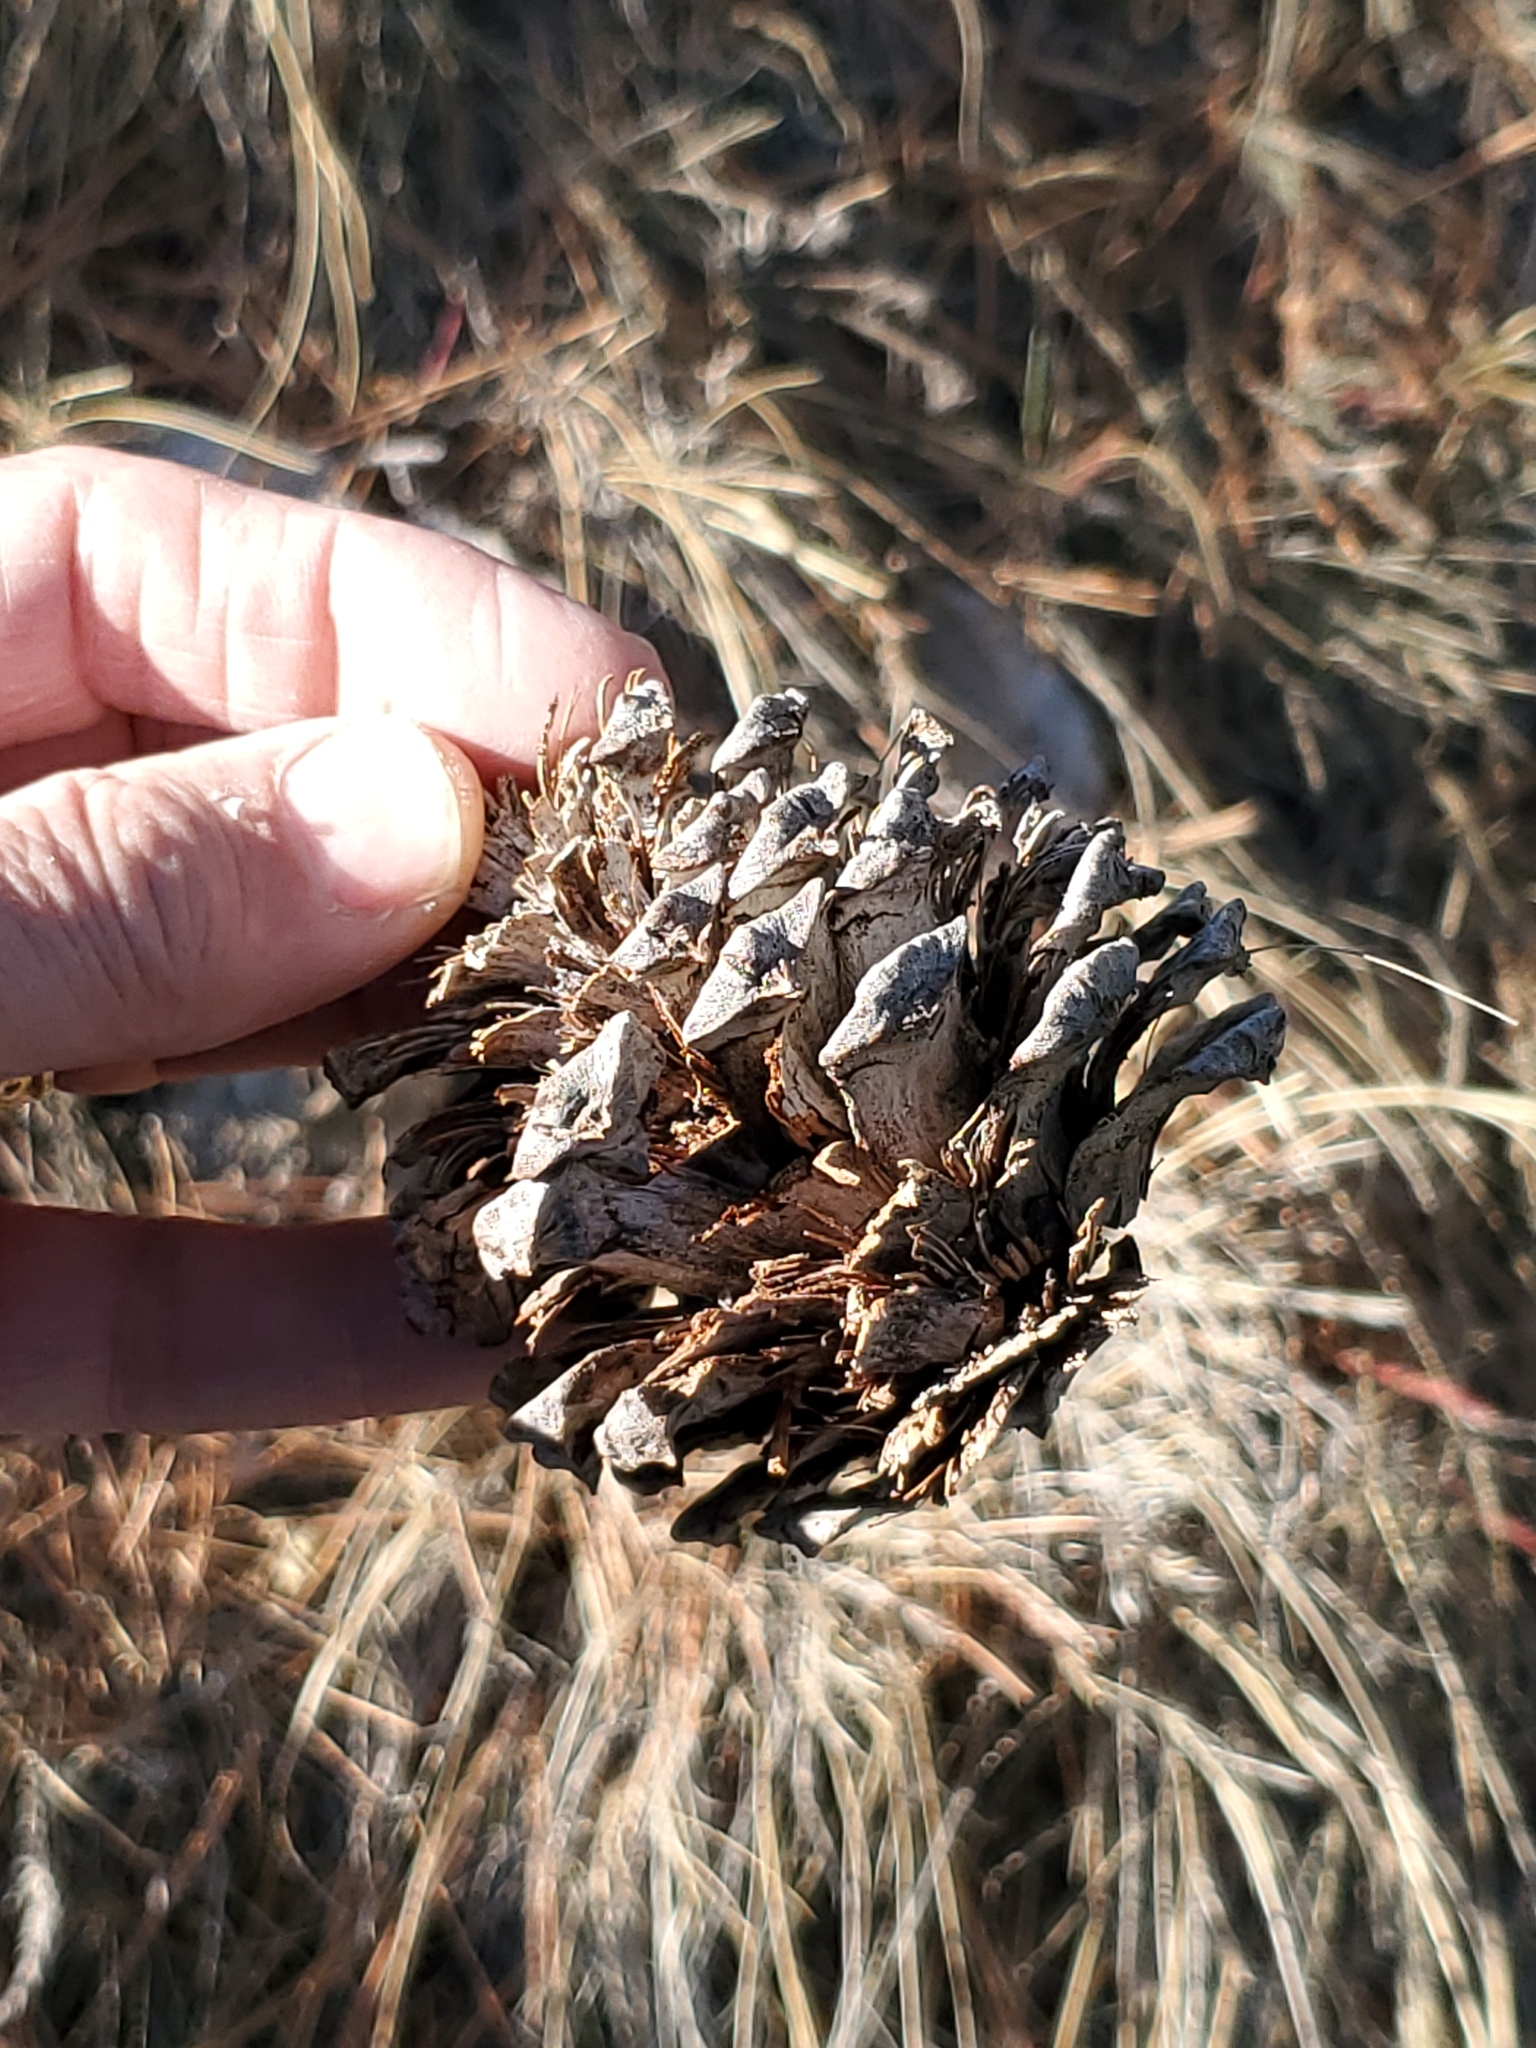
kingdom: Plantae
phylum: Tracheophyta
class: Pinopsida
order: Pinales
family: Pinaceae
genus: Pinus
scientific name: Pinus ponderosa
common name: Western yellow-pine
